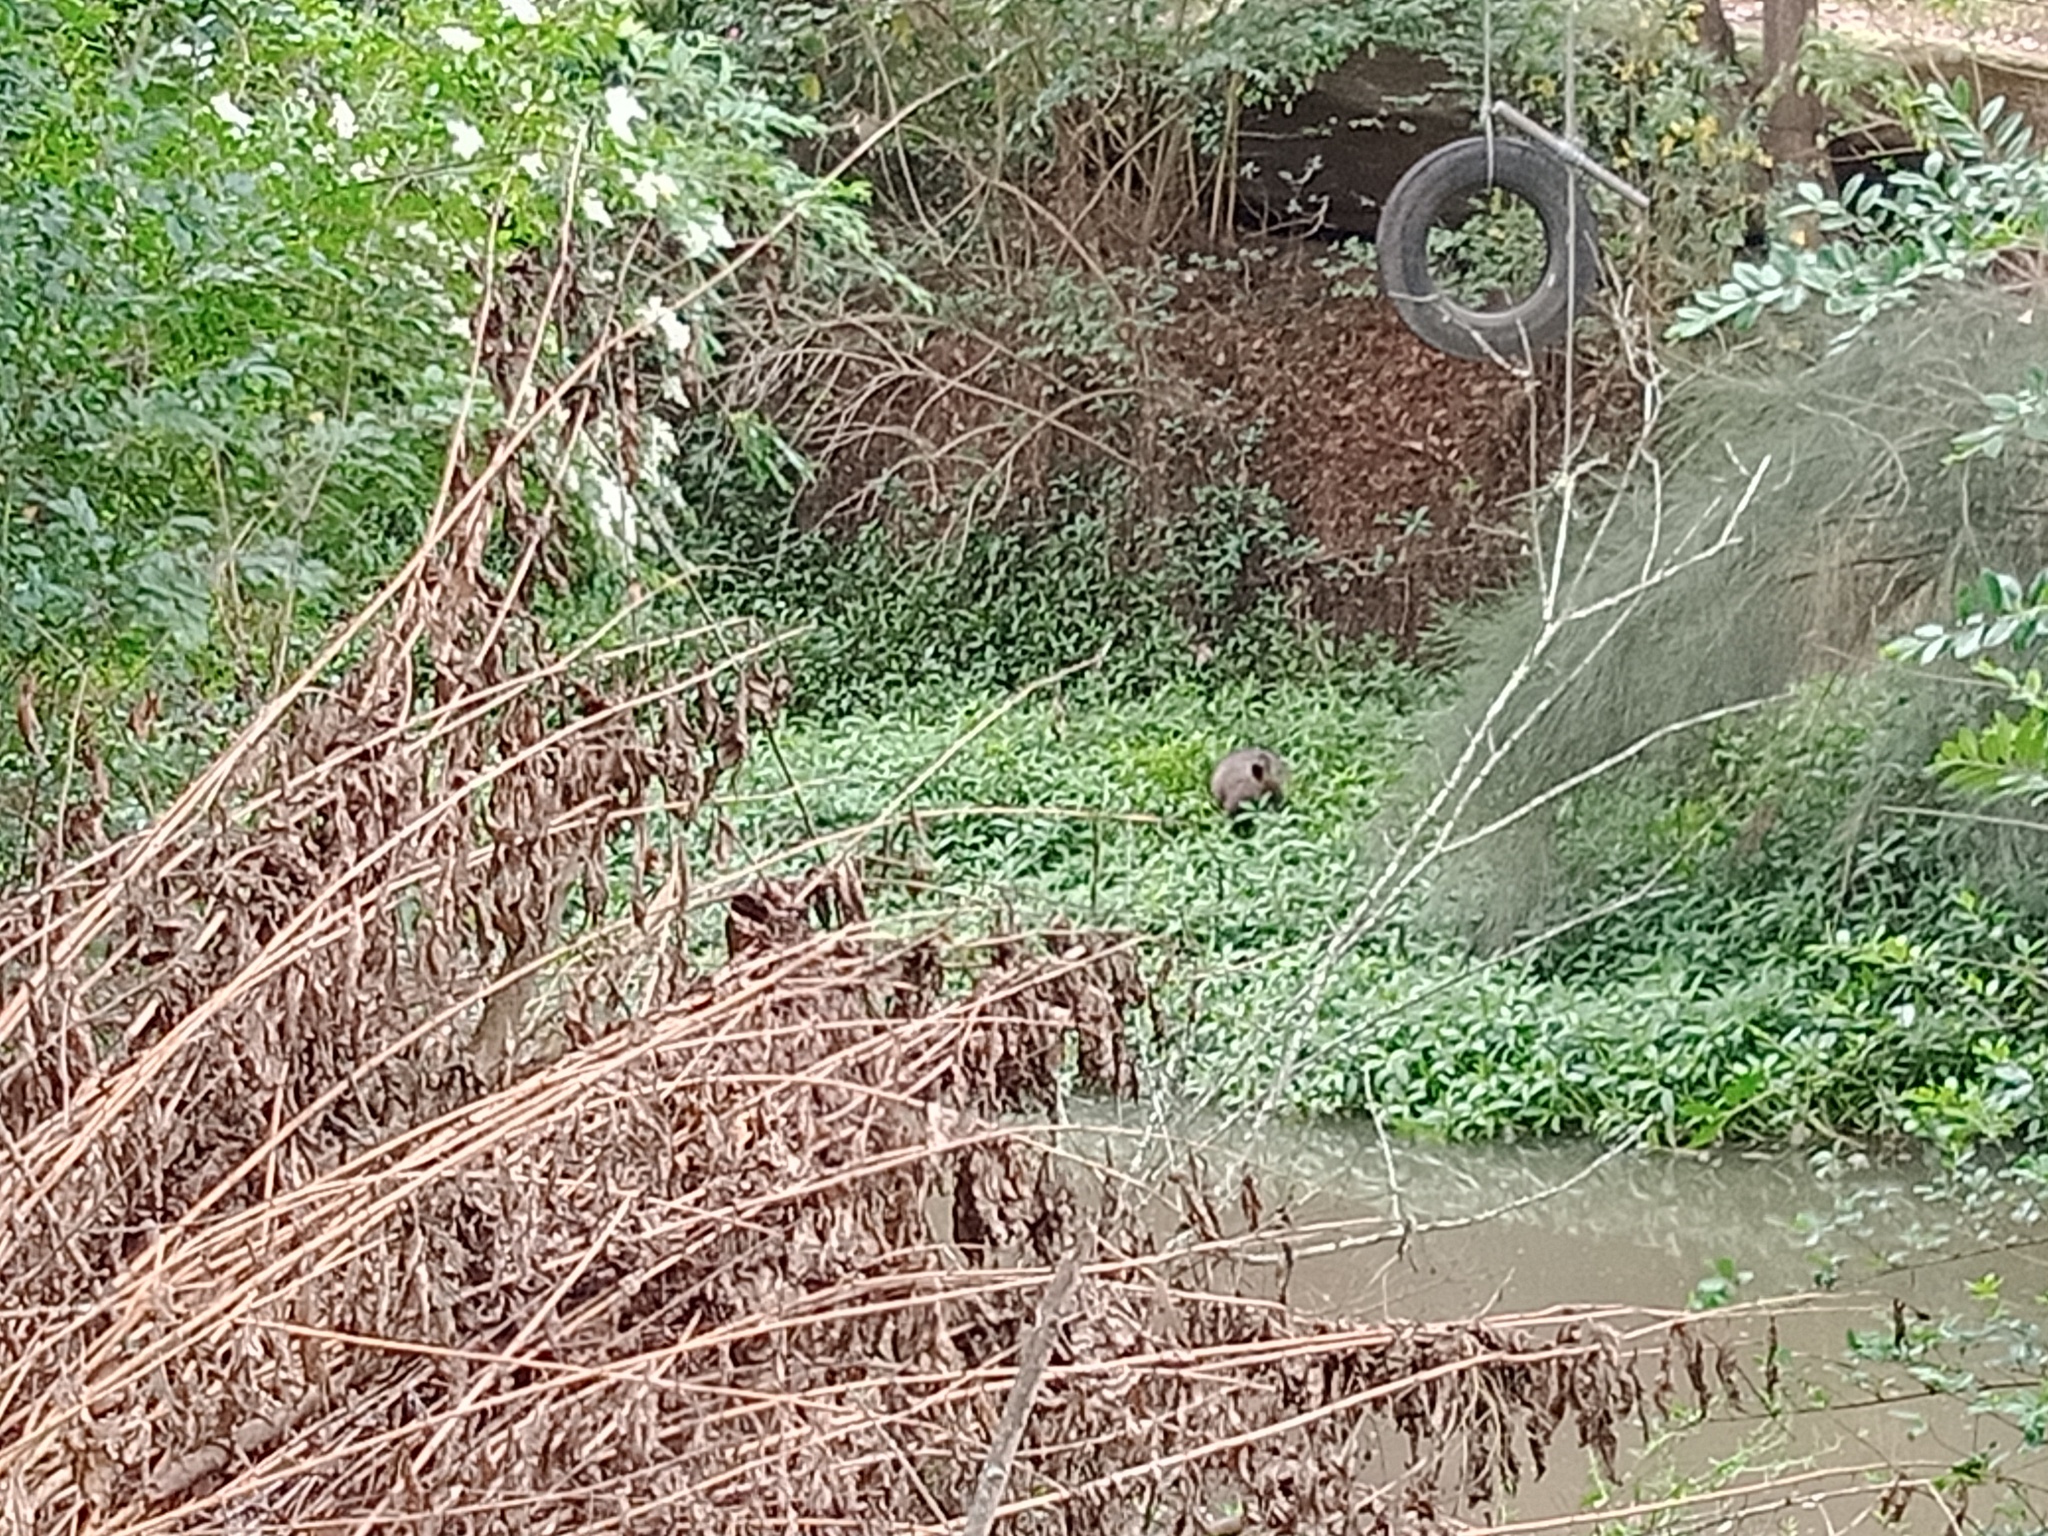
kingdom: Animalia
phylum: Chordata
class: Mammalia
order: Diprotodontia
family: Macropodidae
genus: Wallabia
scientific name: Wallabia bicolor
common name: Swamp wallaby
